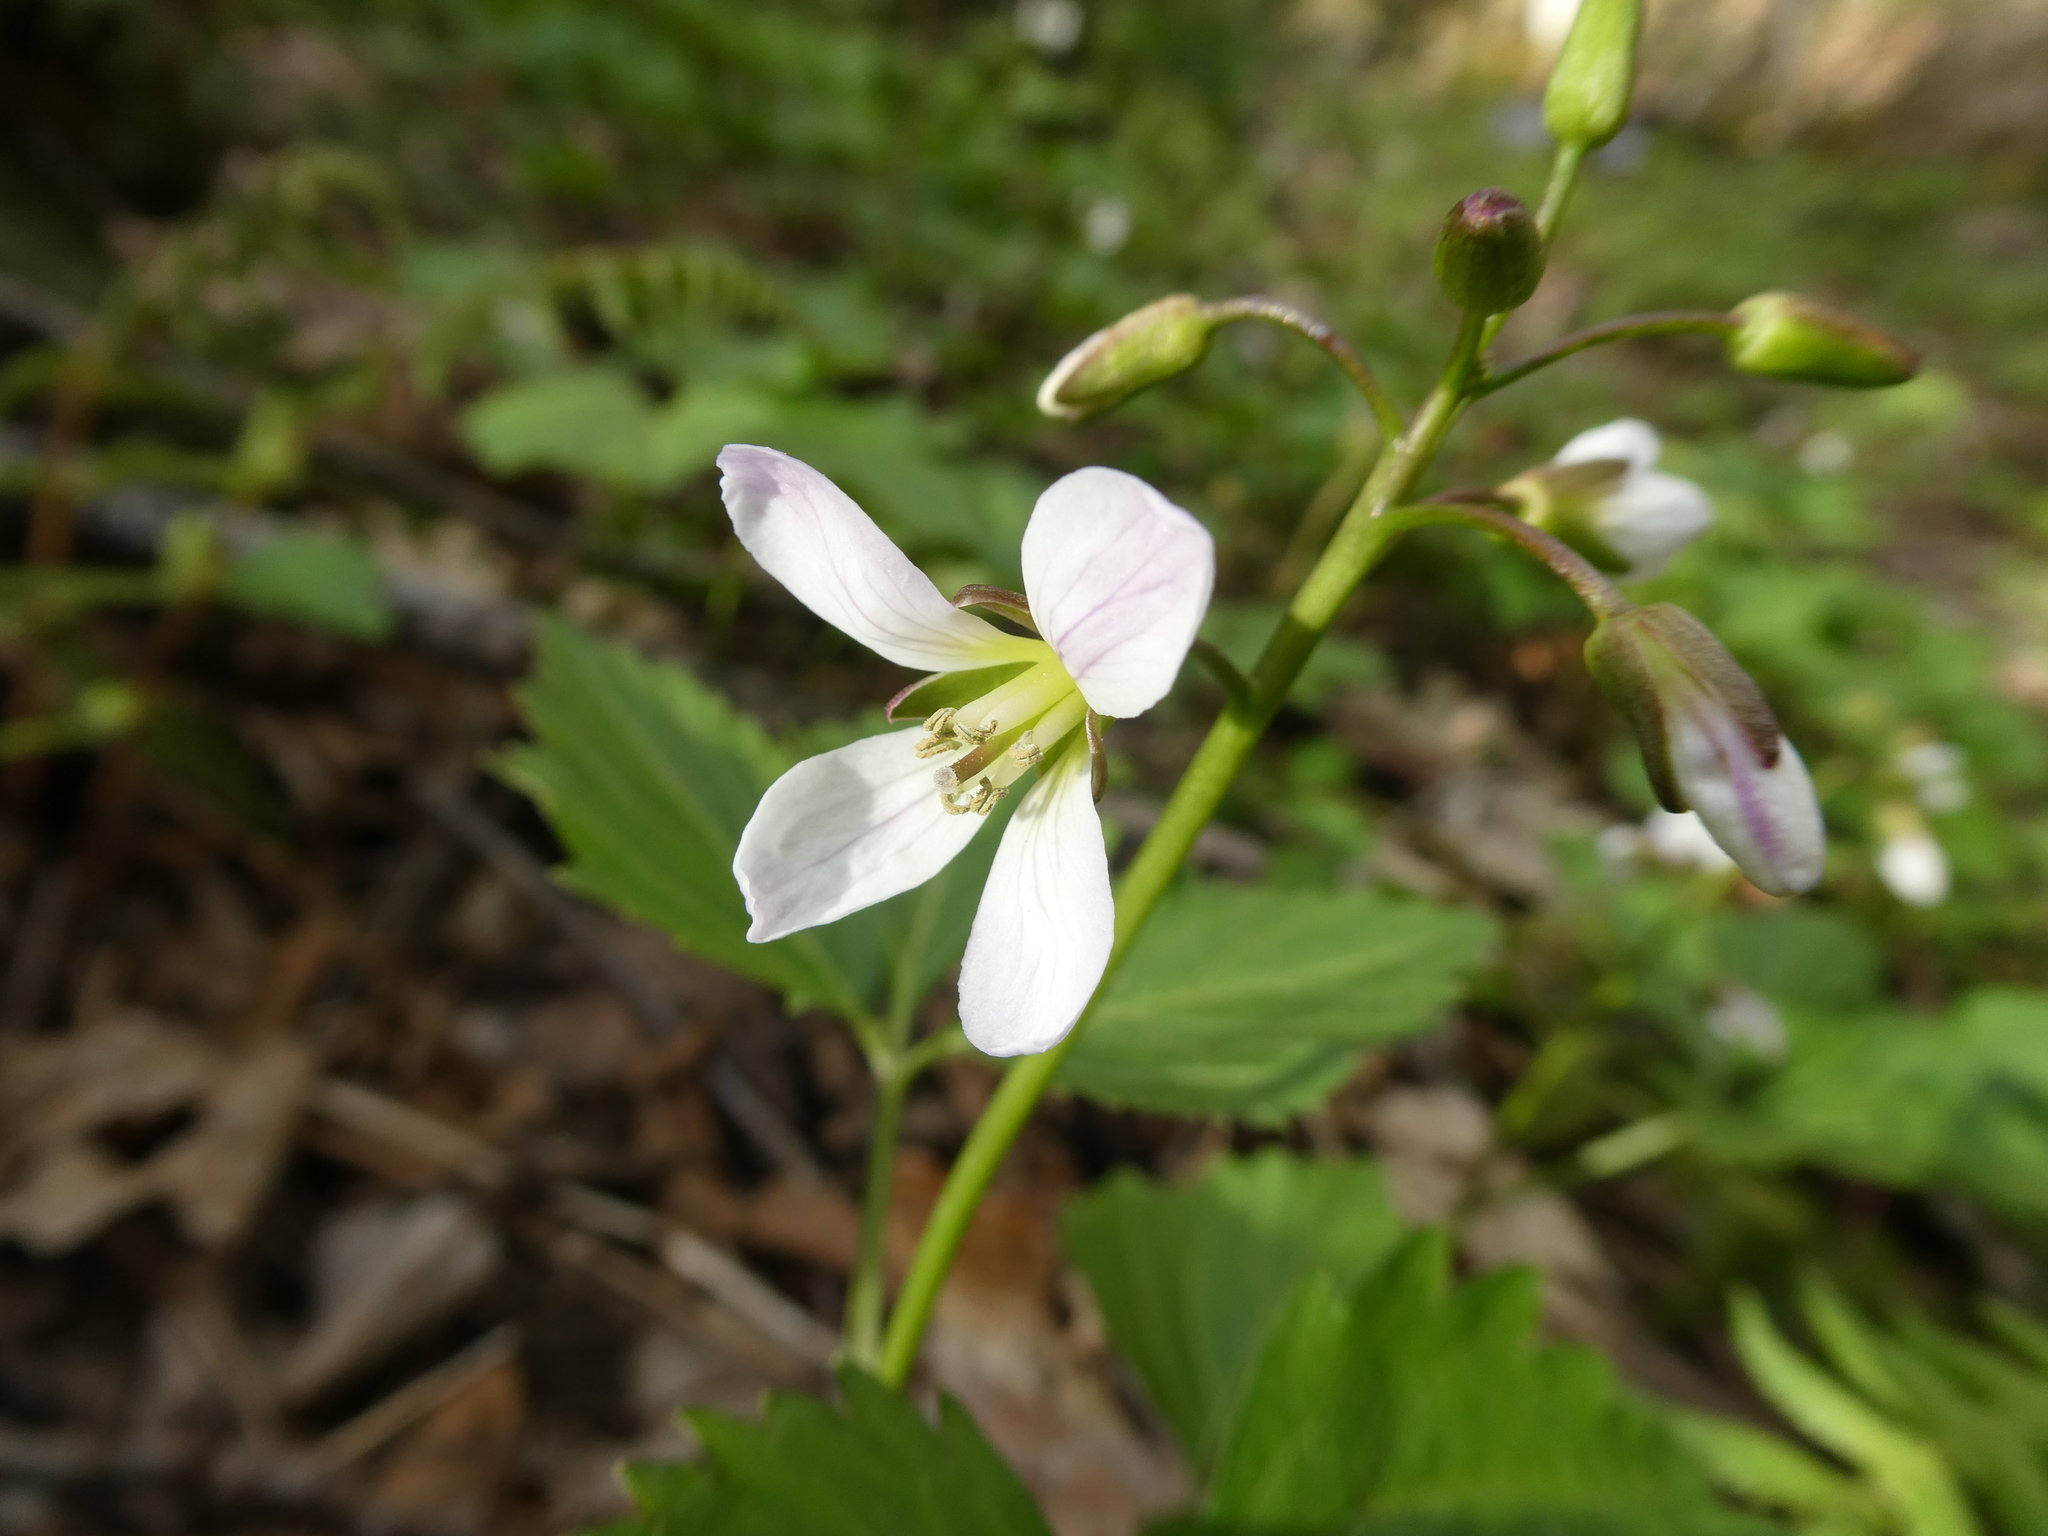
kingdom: Plantae
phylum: Tracheophyta
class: Magnoliopsida
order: Brassicales
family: Brassicaceae
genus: Cardamine
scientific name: Cardamine diphylla
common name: Broad-leaved toothwort
